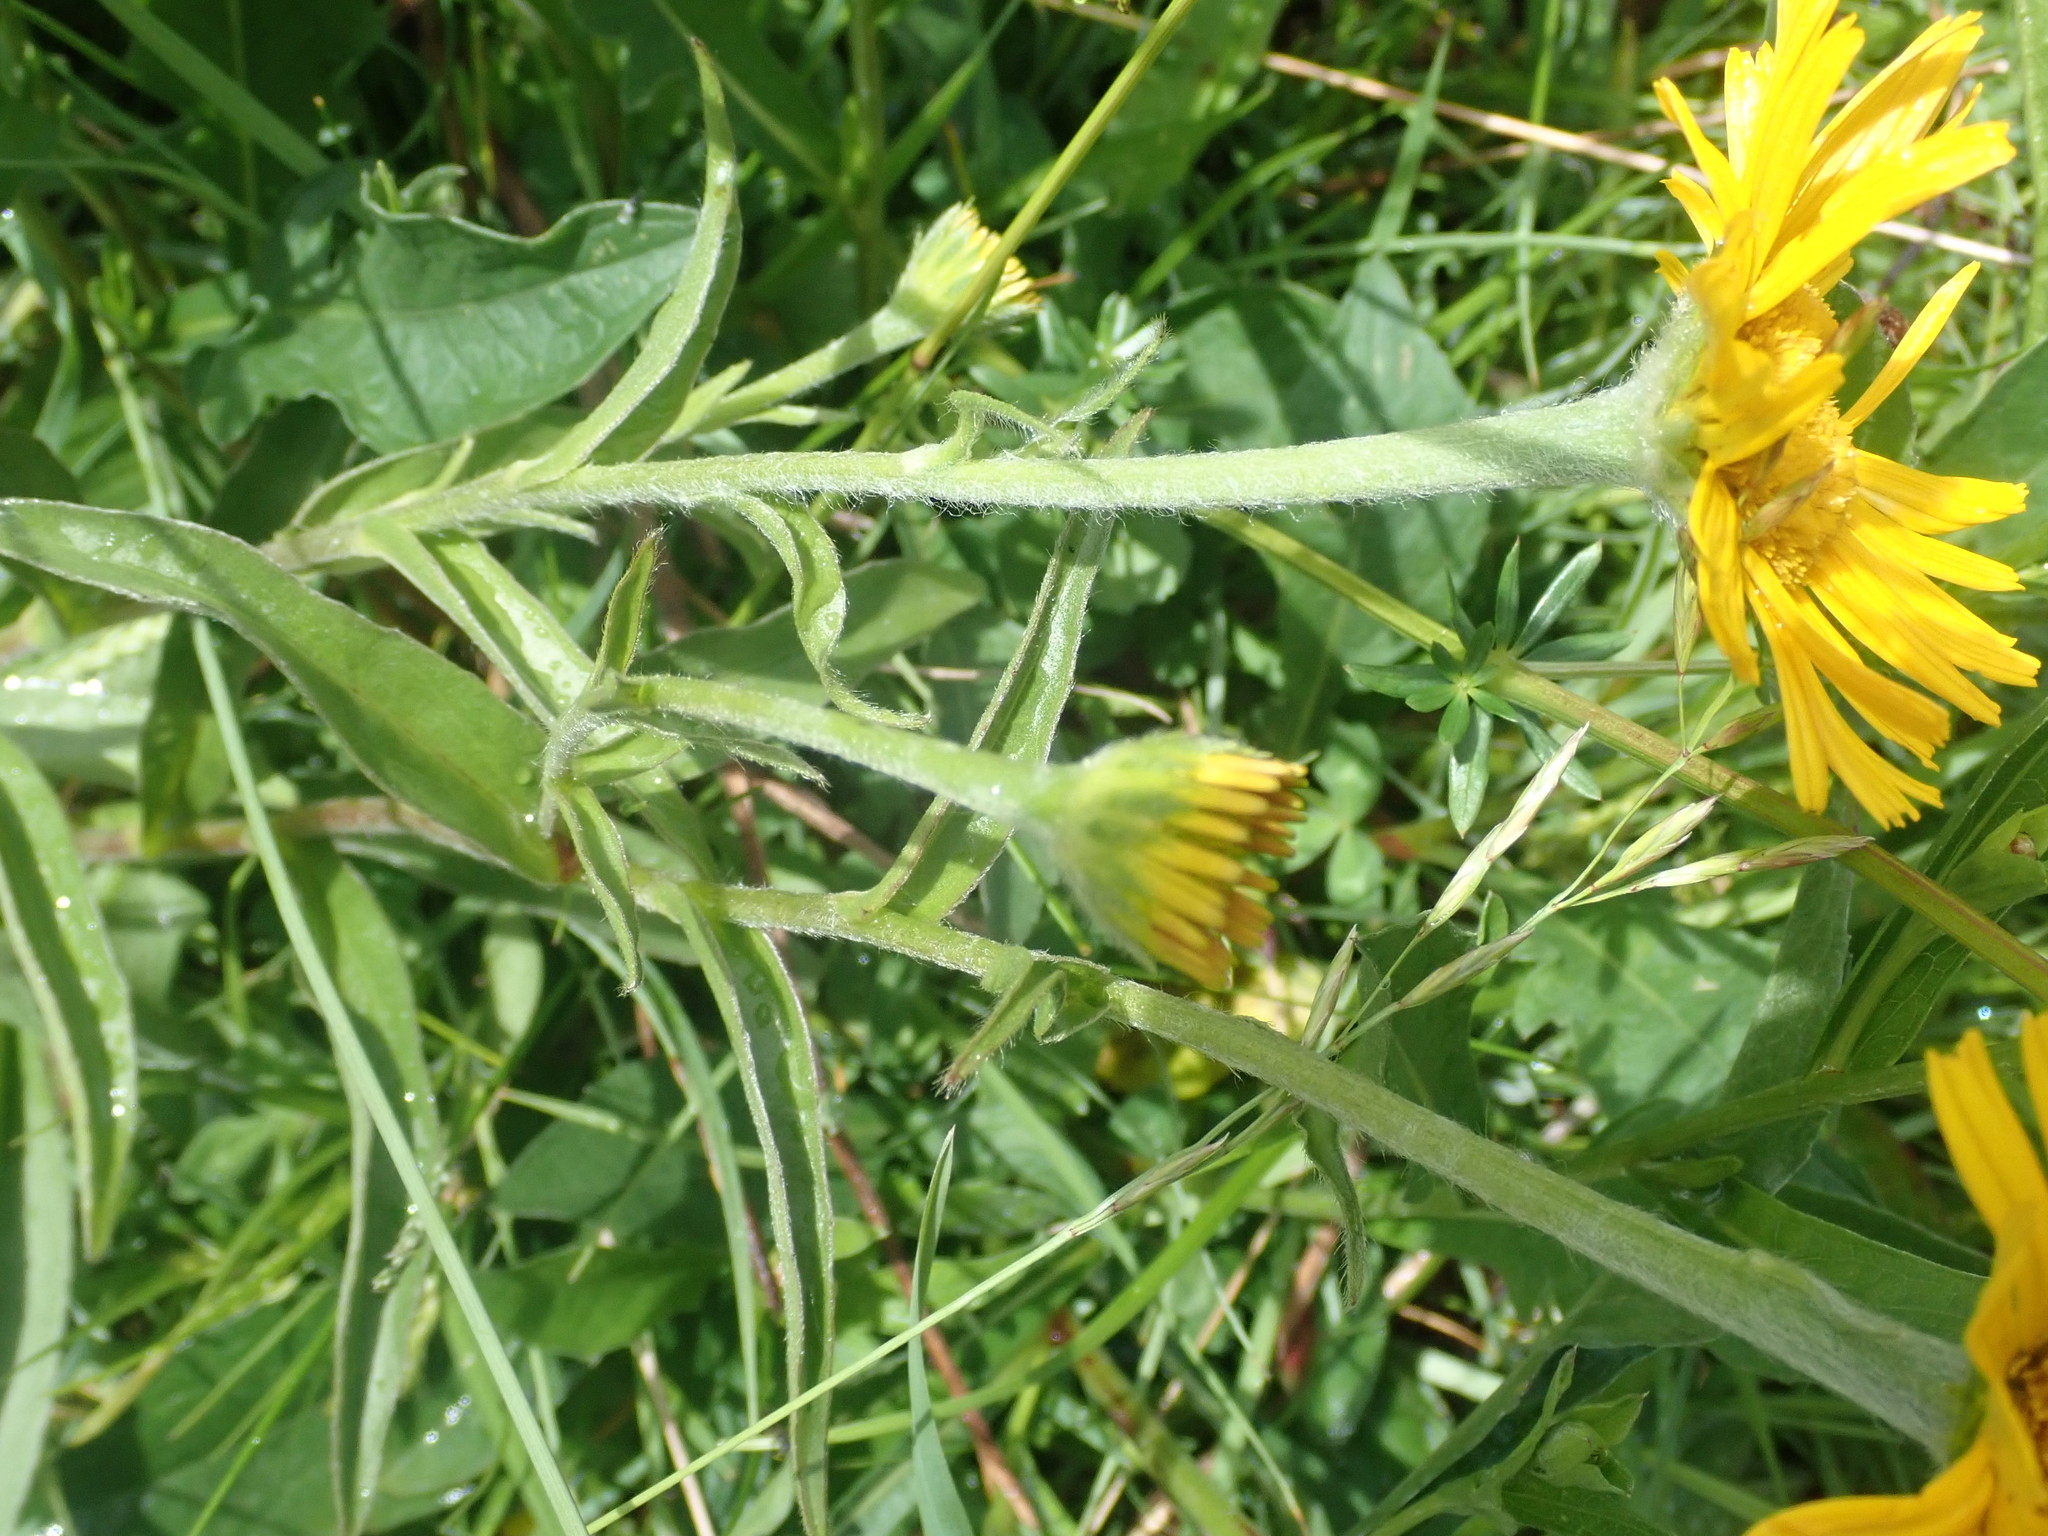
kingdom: Plantae
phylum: Tracheophyta
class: Magnoliopsida
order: Asterales
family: Asteraceae
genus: Buphthalmum
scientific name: Buphthalmum salicifolium
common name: Willow-leaved yellow-oxeye
